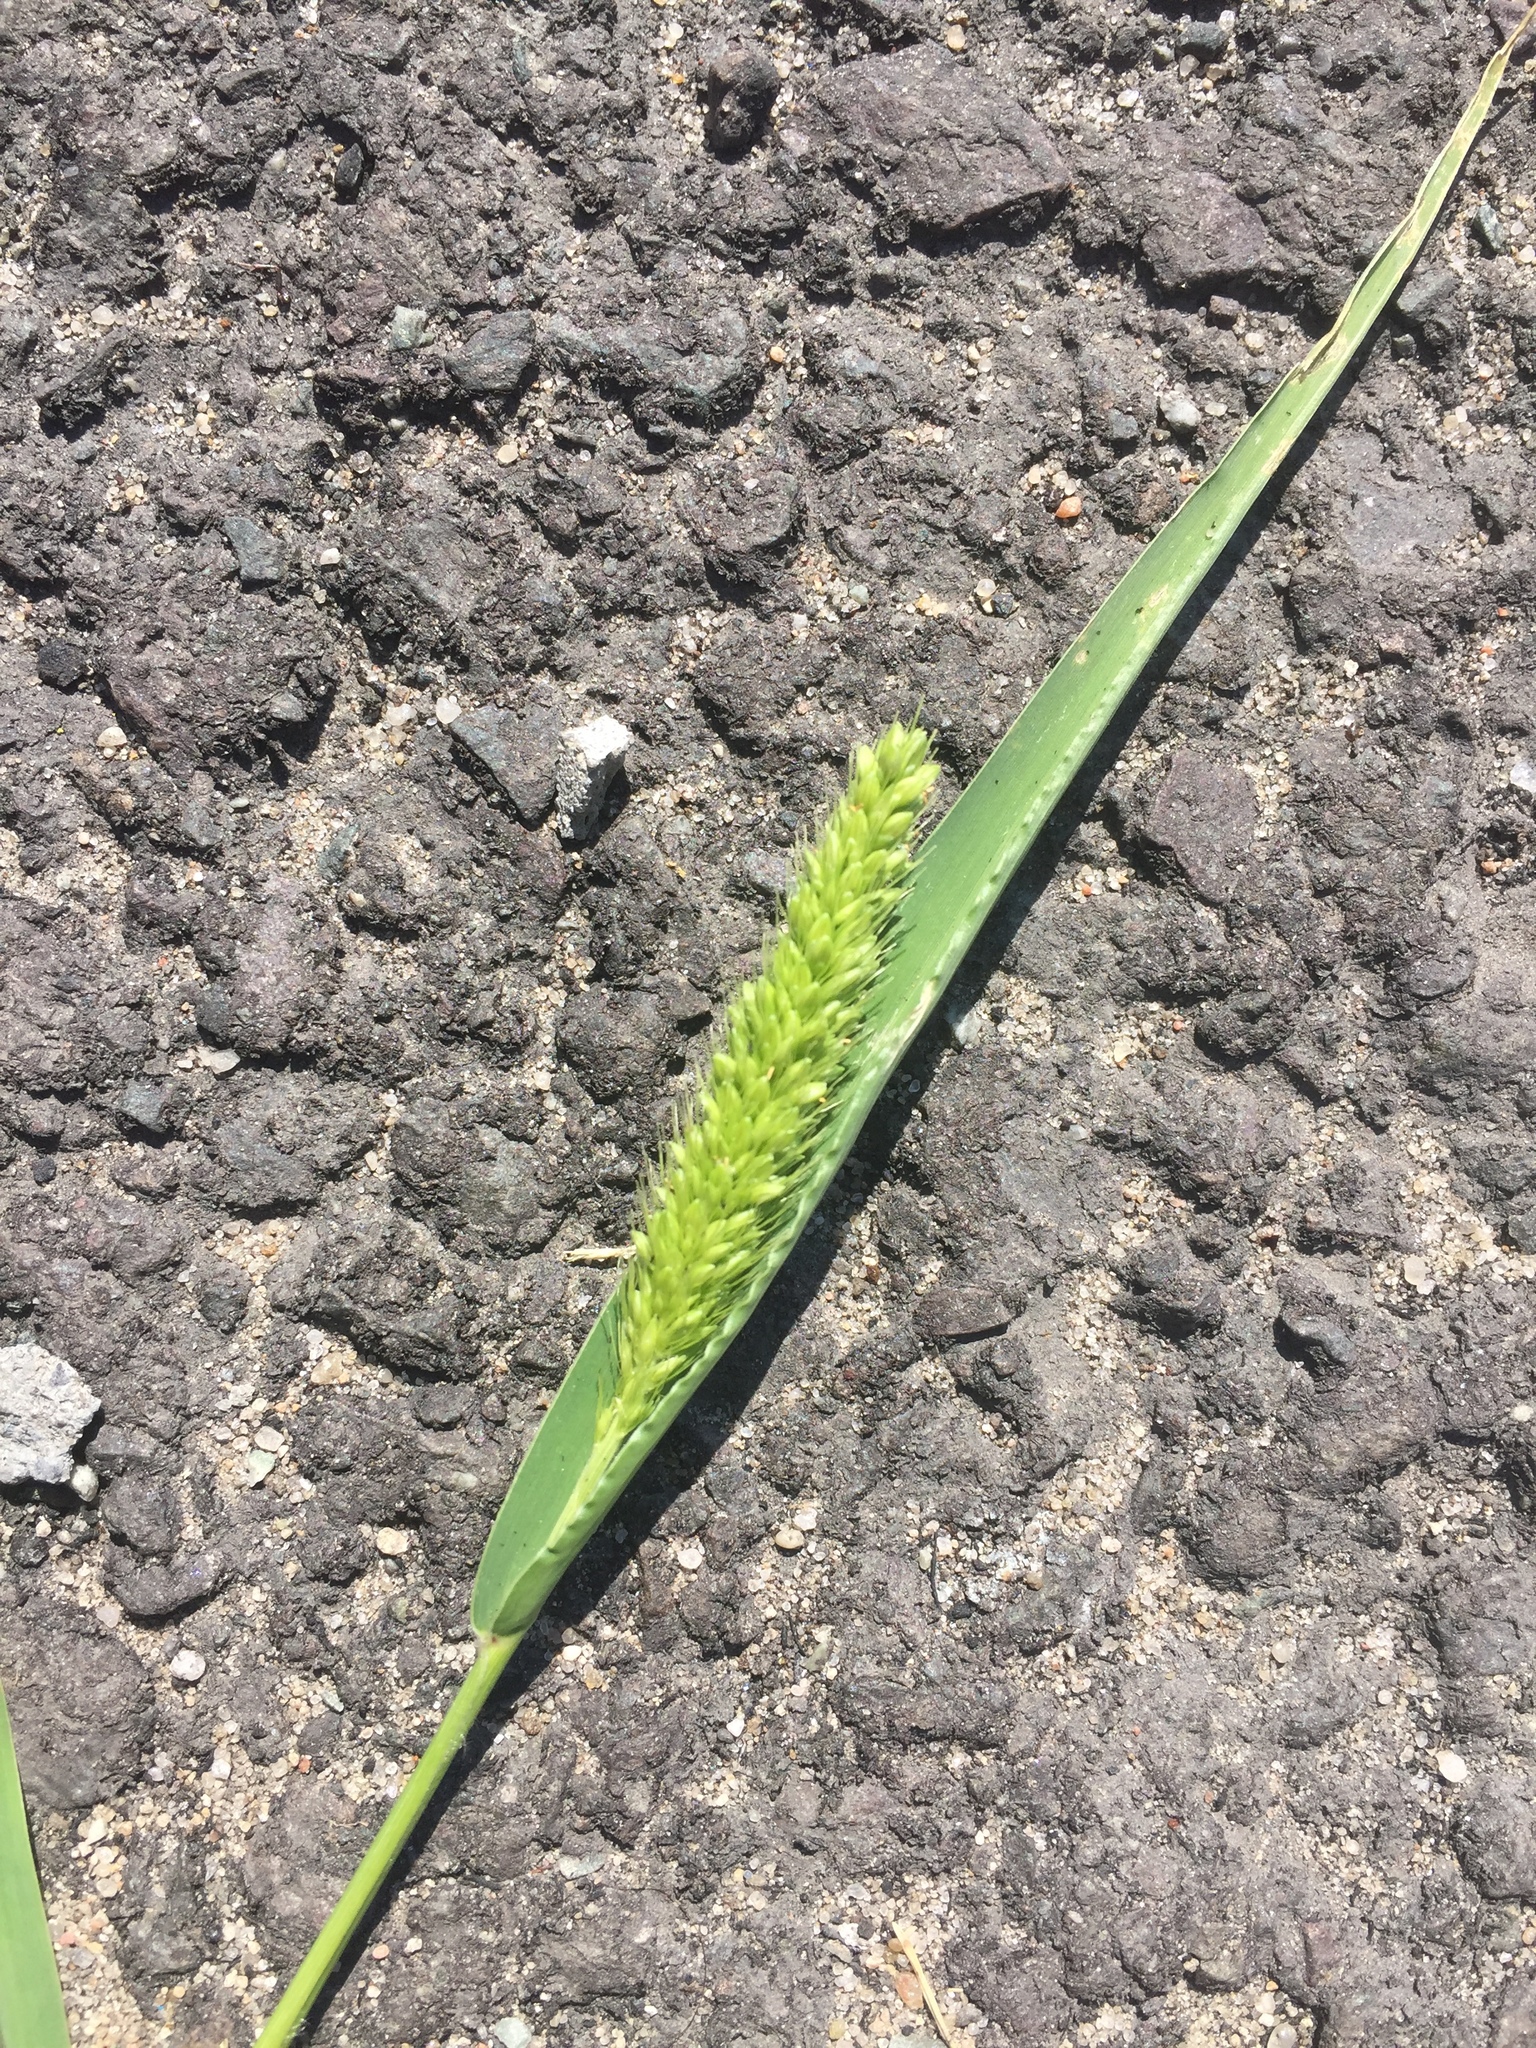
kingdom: Plantae
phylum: Tracheophyta
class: Liliopsida
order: Poales
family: Poaceae
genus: Setaria
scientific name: Setaria viridis
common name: Green bristlegrass
